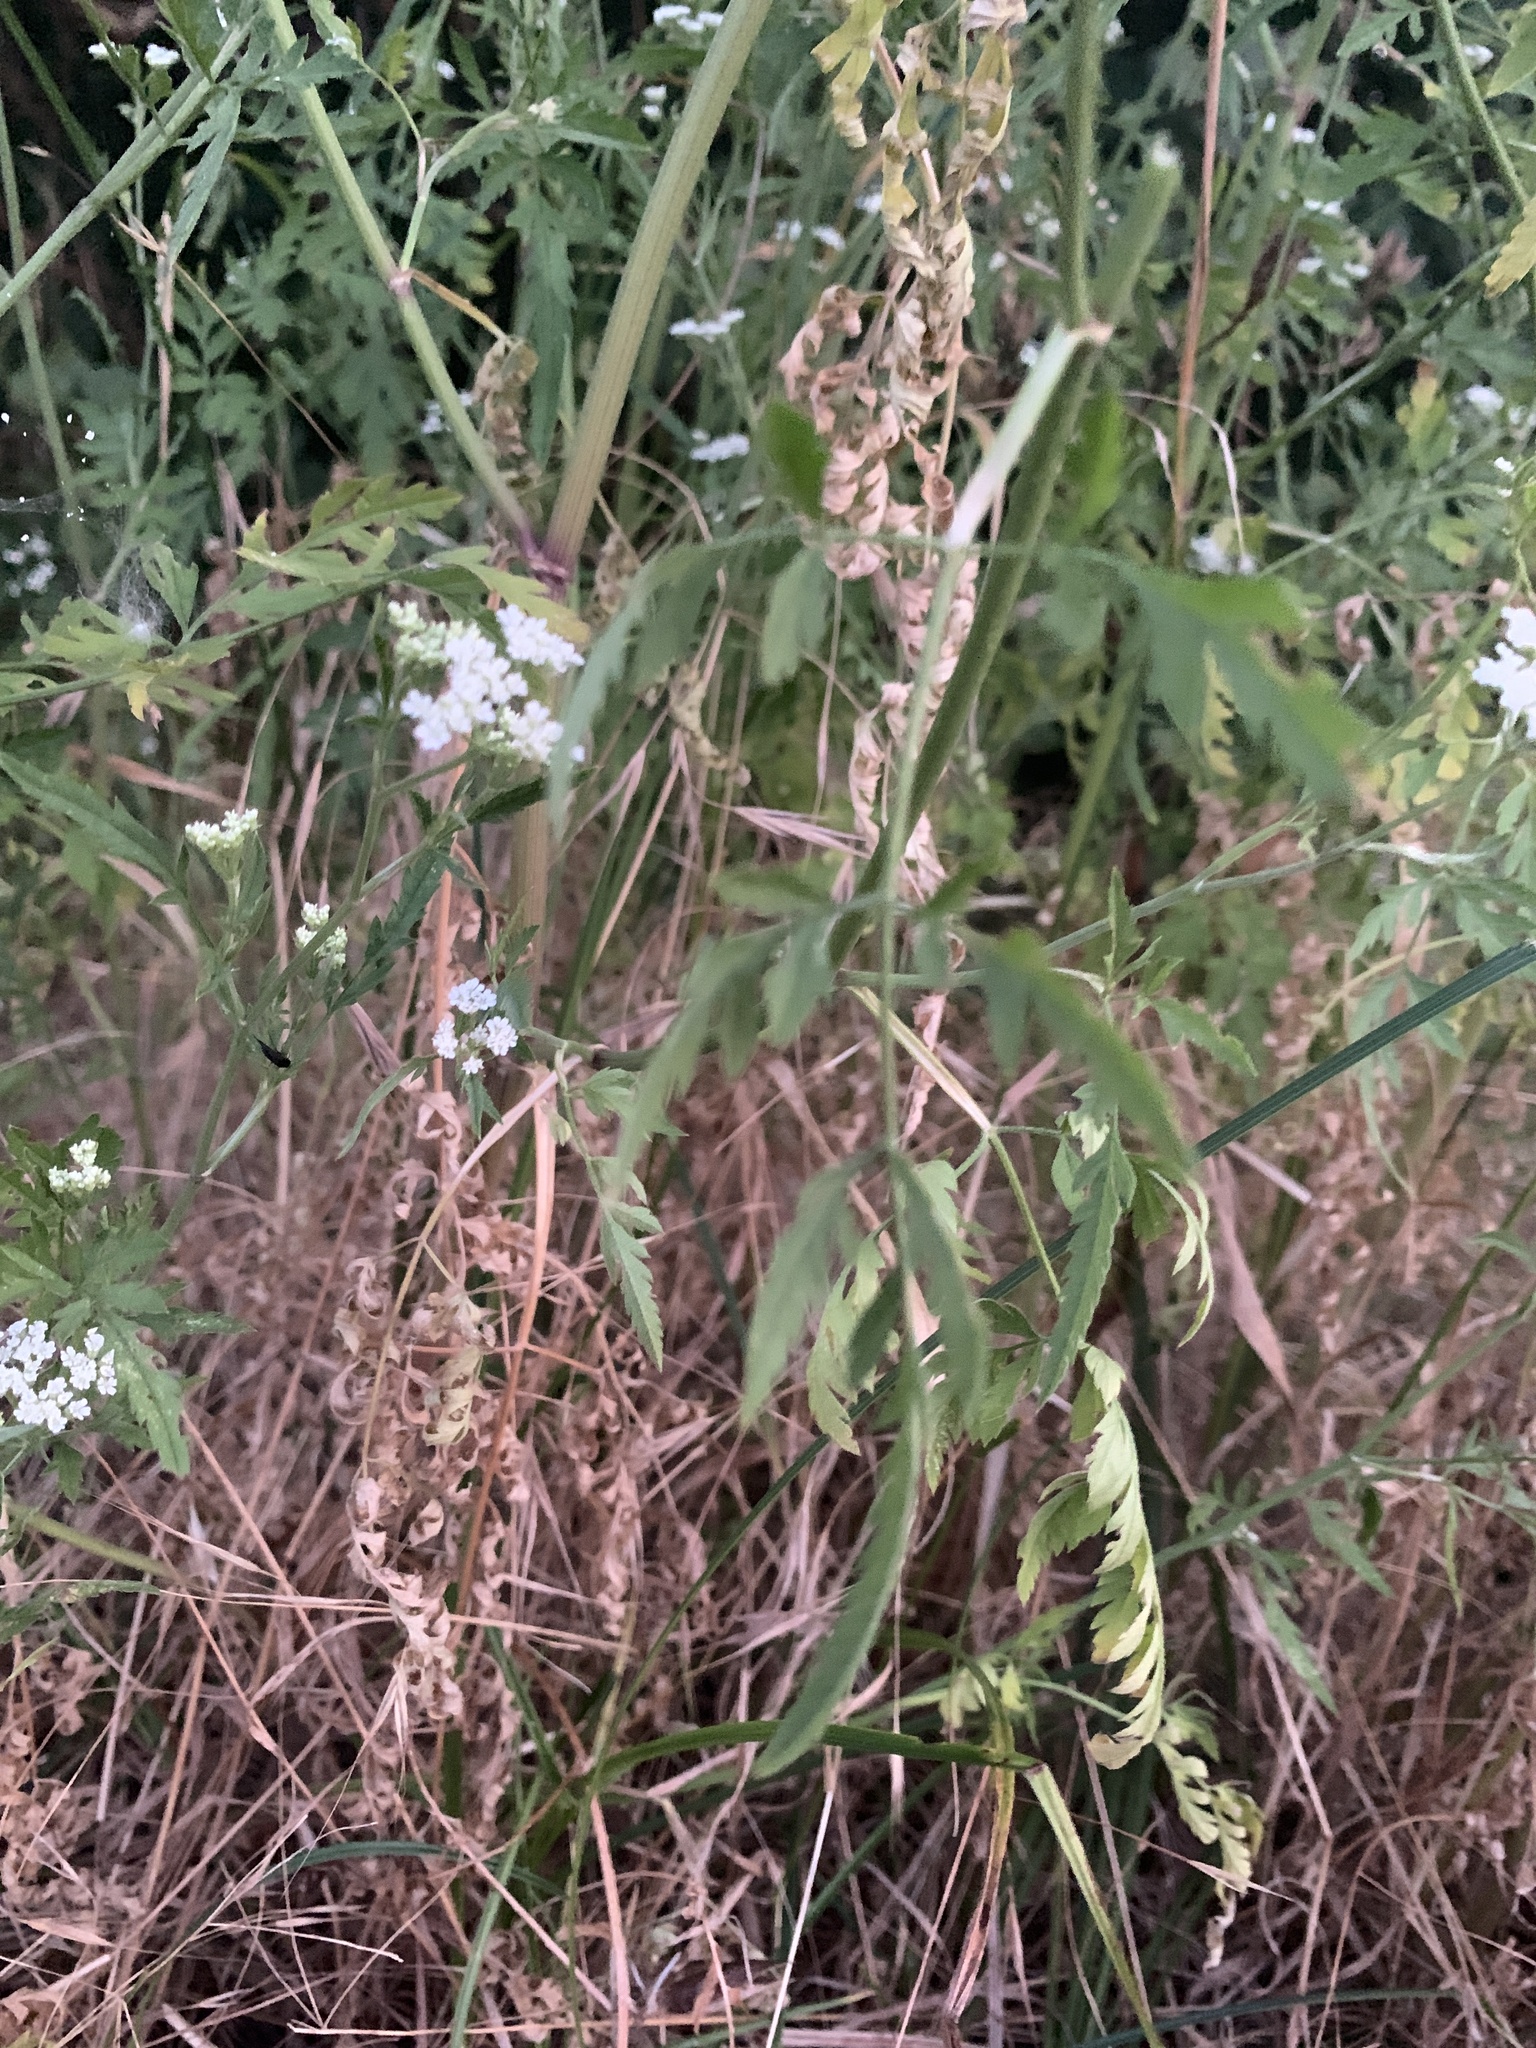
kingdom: Plantae
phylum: Tracheophyta
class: Magnoliopsida
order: Apiales
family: Apiaceae
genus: Torilis
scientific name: Torilis arvensis
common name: Spreading hedge-parsley
